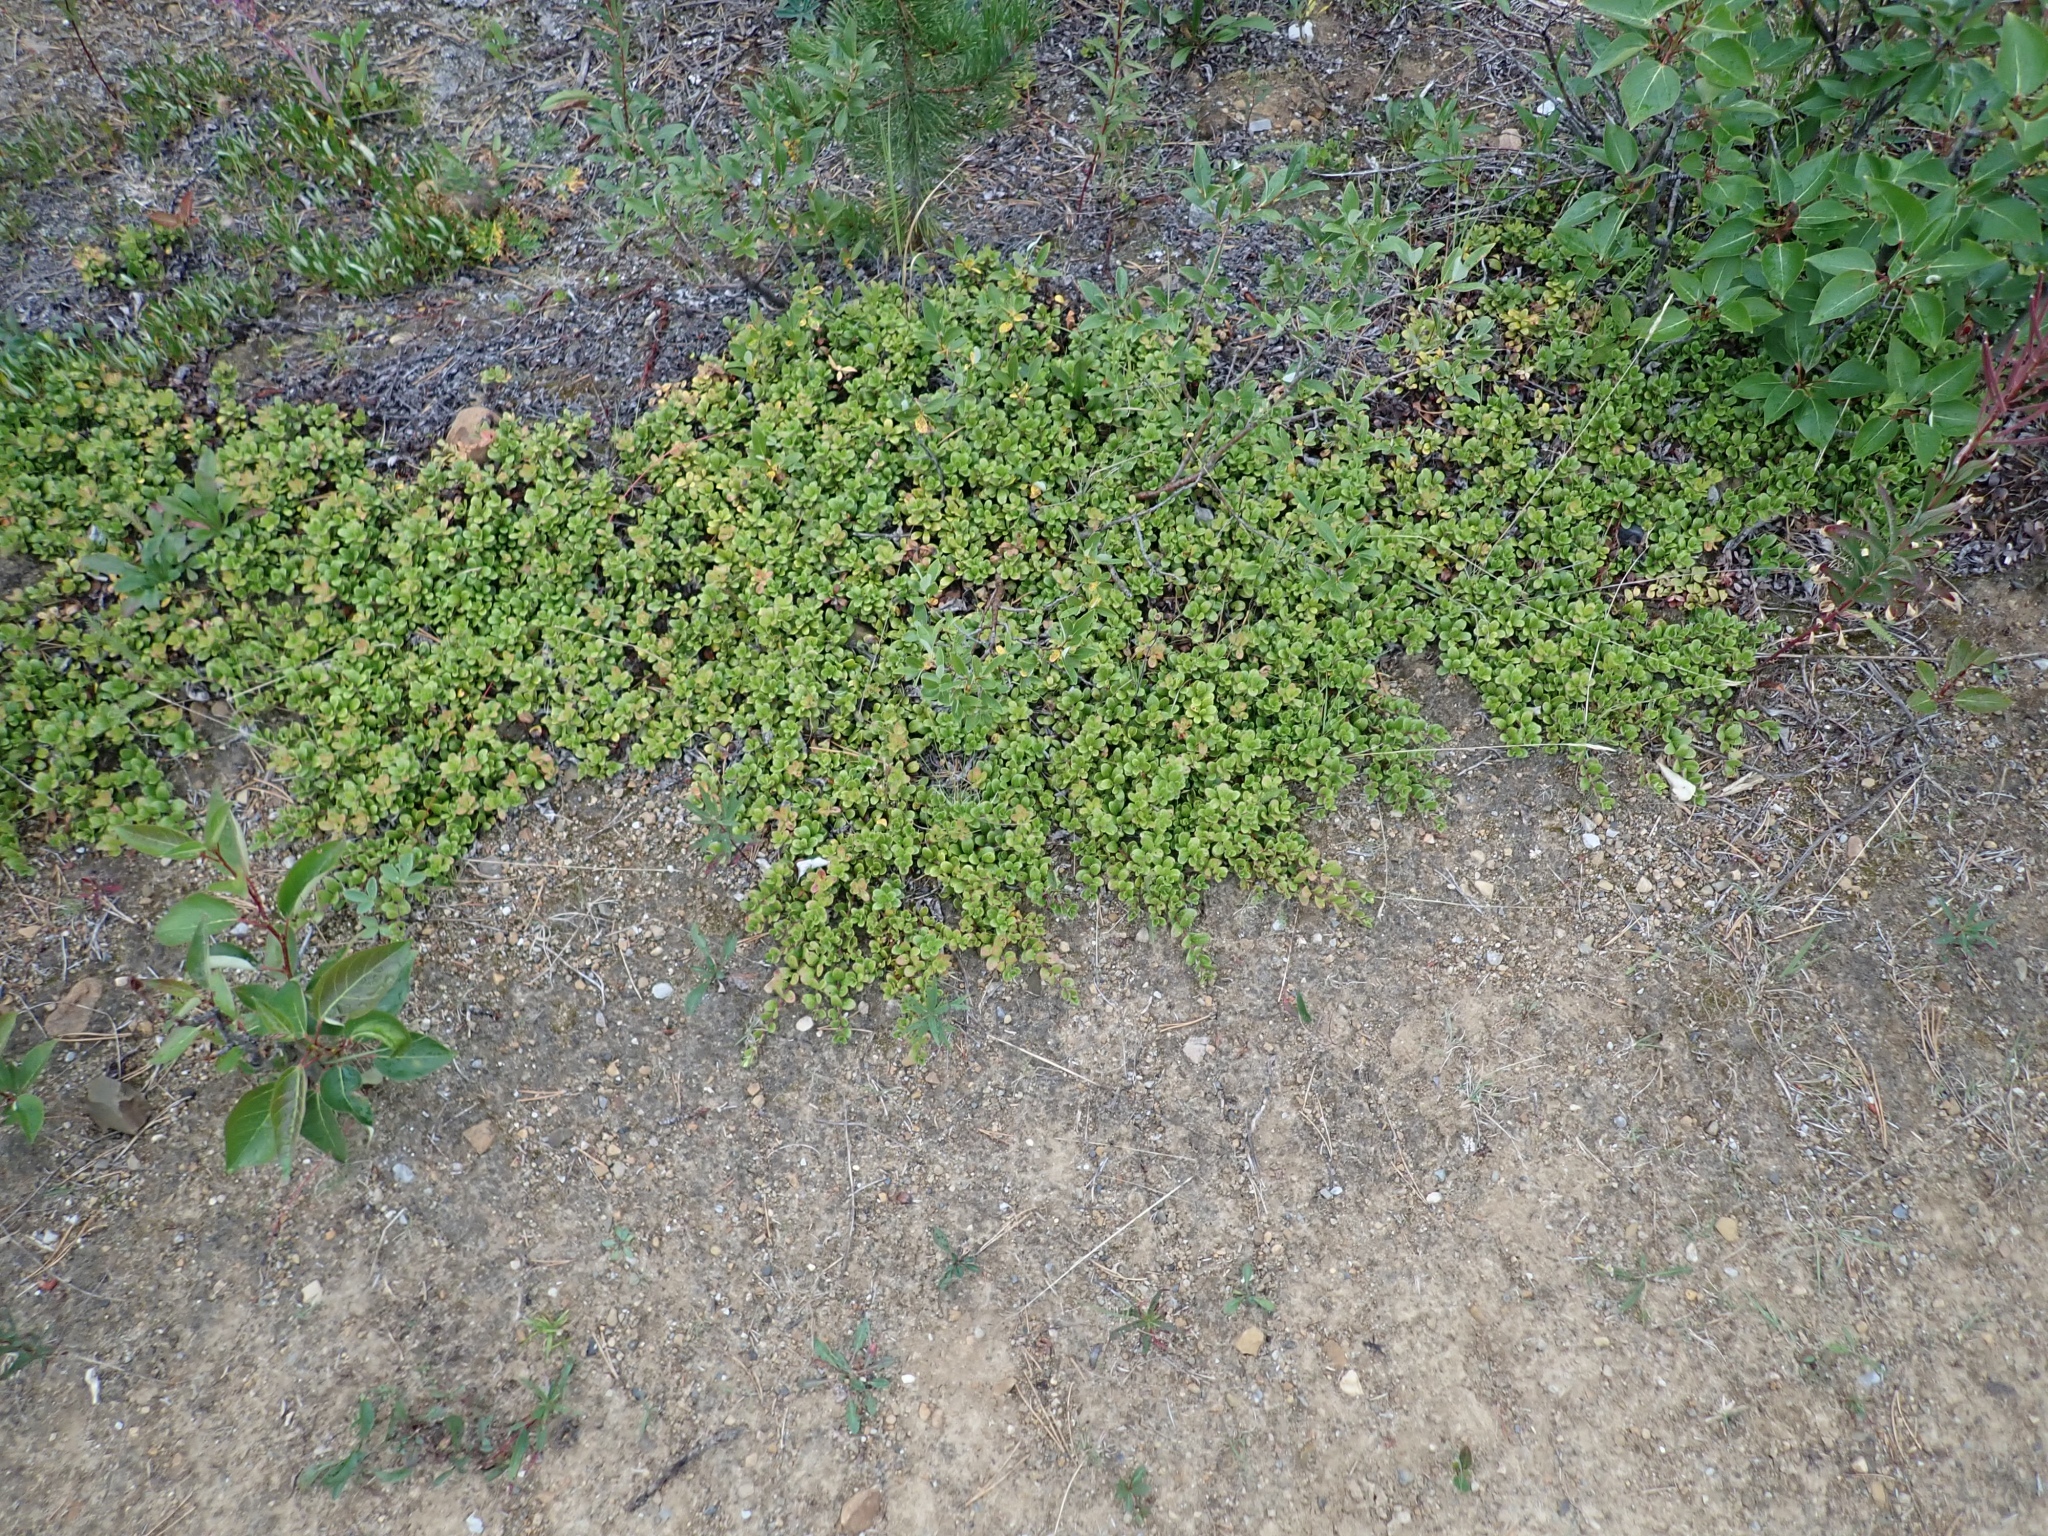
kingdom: Plantae
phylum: Tracheophyta
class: Magnoliopsida
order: Ericales
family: Ericaceae
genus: Arctostaphylos
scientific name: Arctostaphylos uva-ursi
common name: Bearberry
